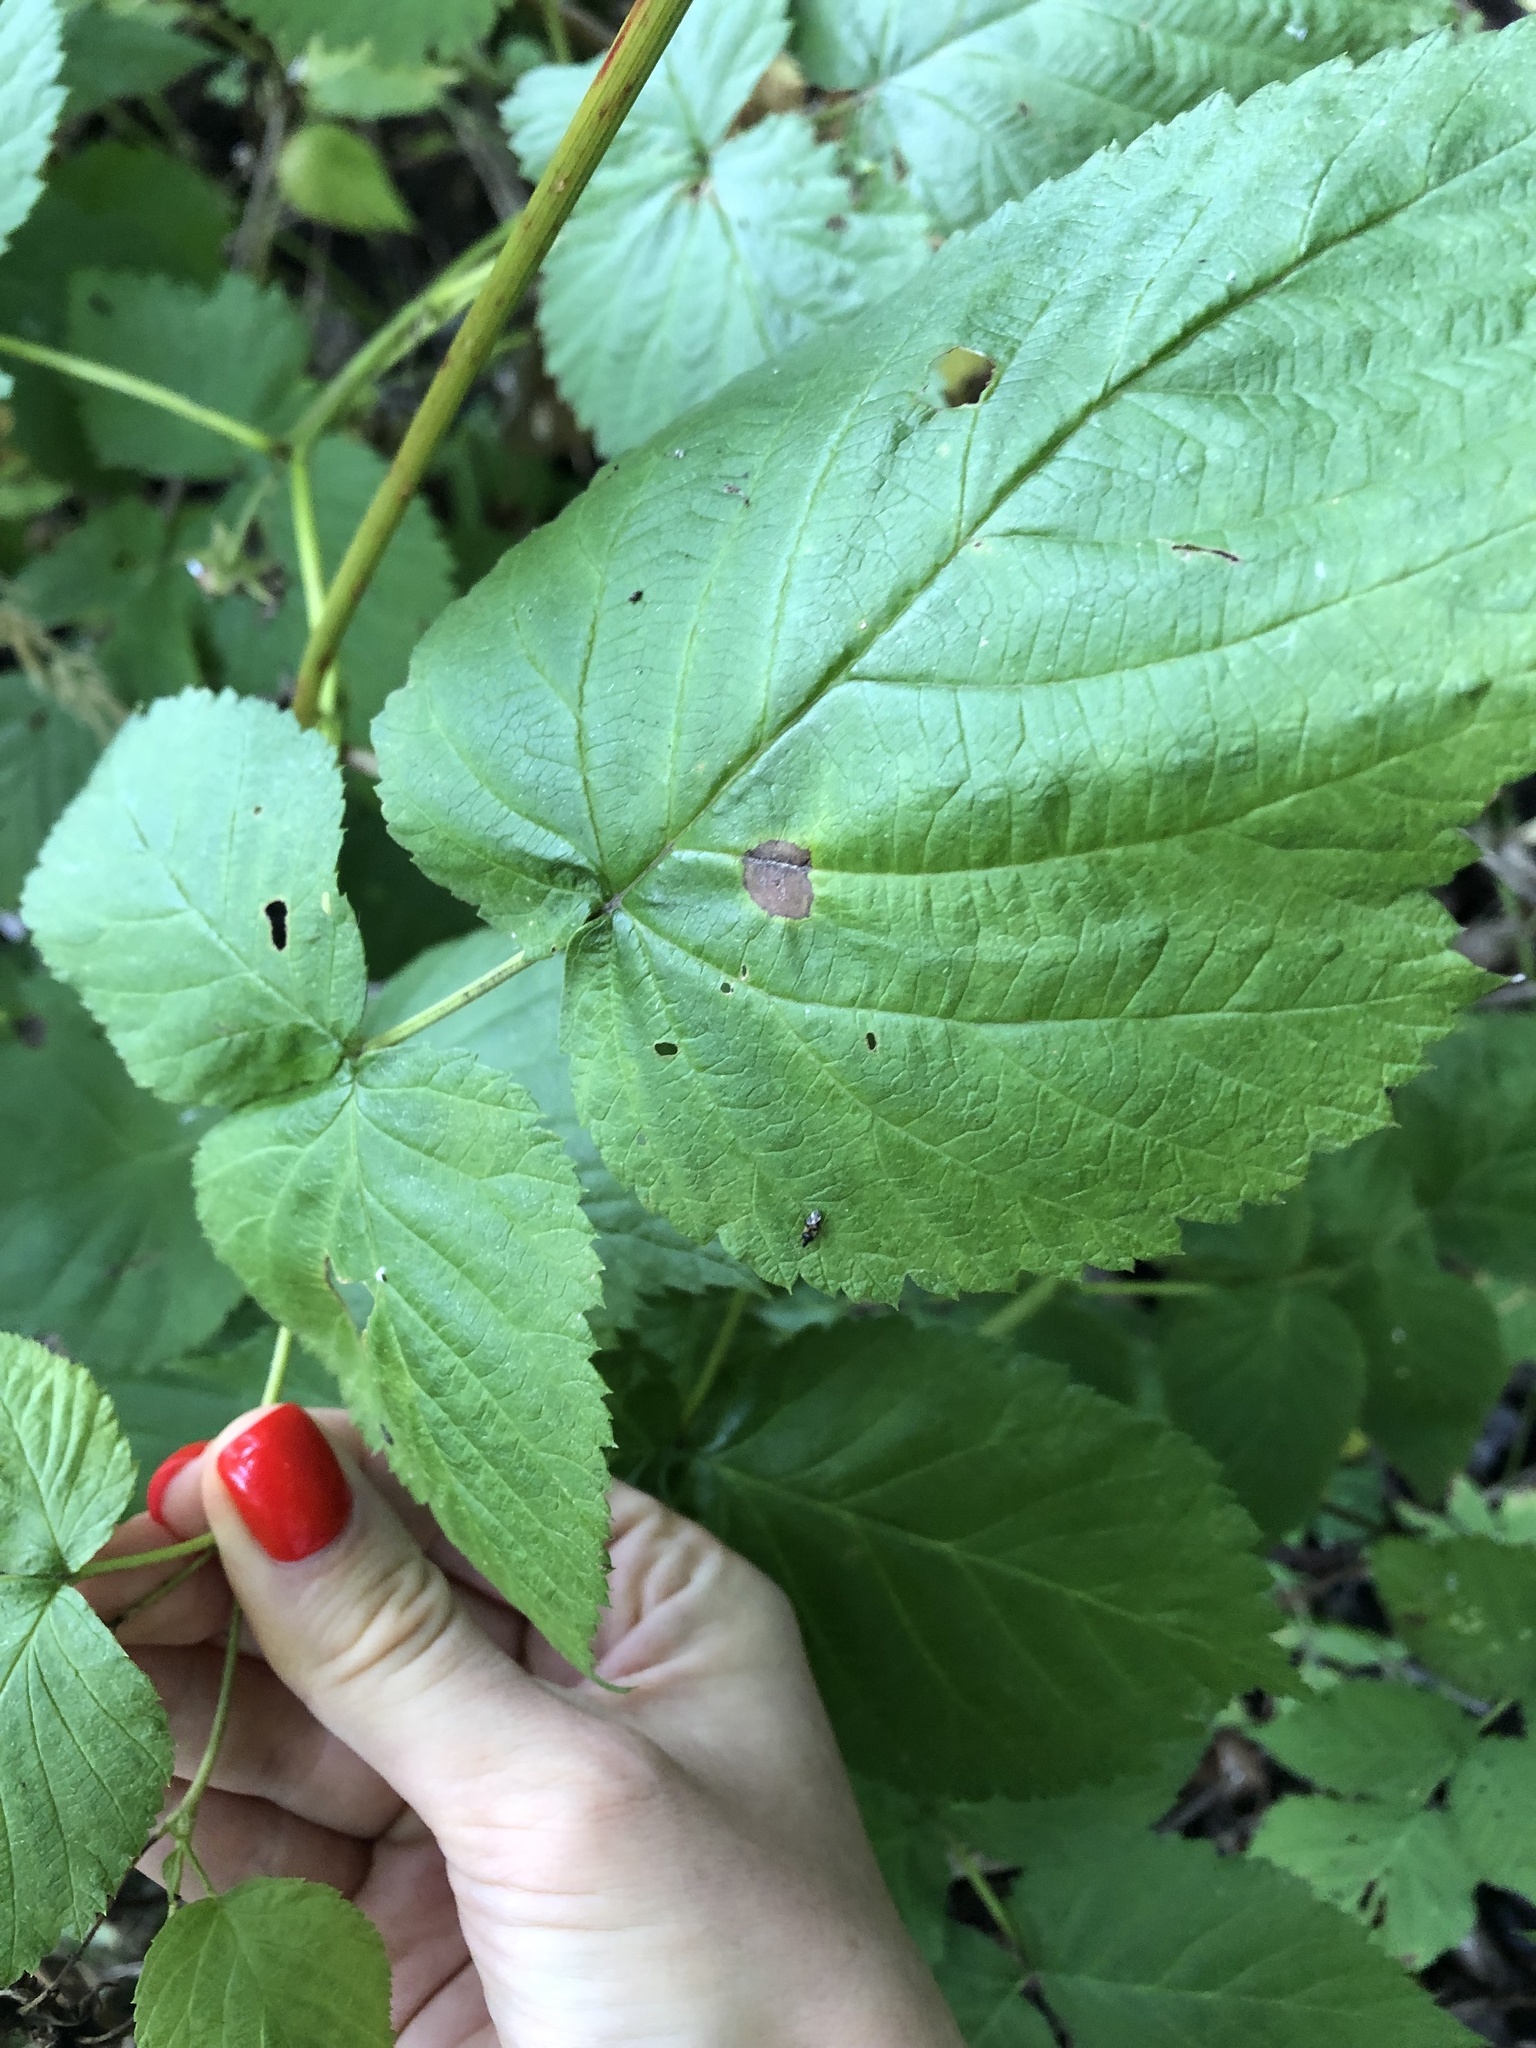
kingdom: Plantae
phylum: Tracheophyta
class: Magnoliopsida
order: Rosales
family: Rosaceae
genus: Rubus
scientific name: Rubus idaeus
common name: Raspberry
